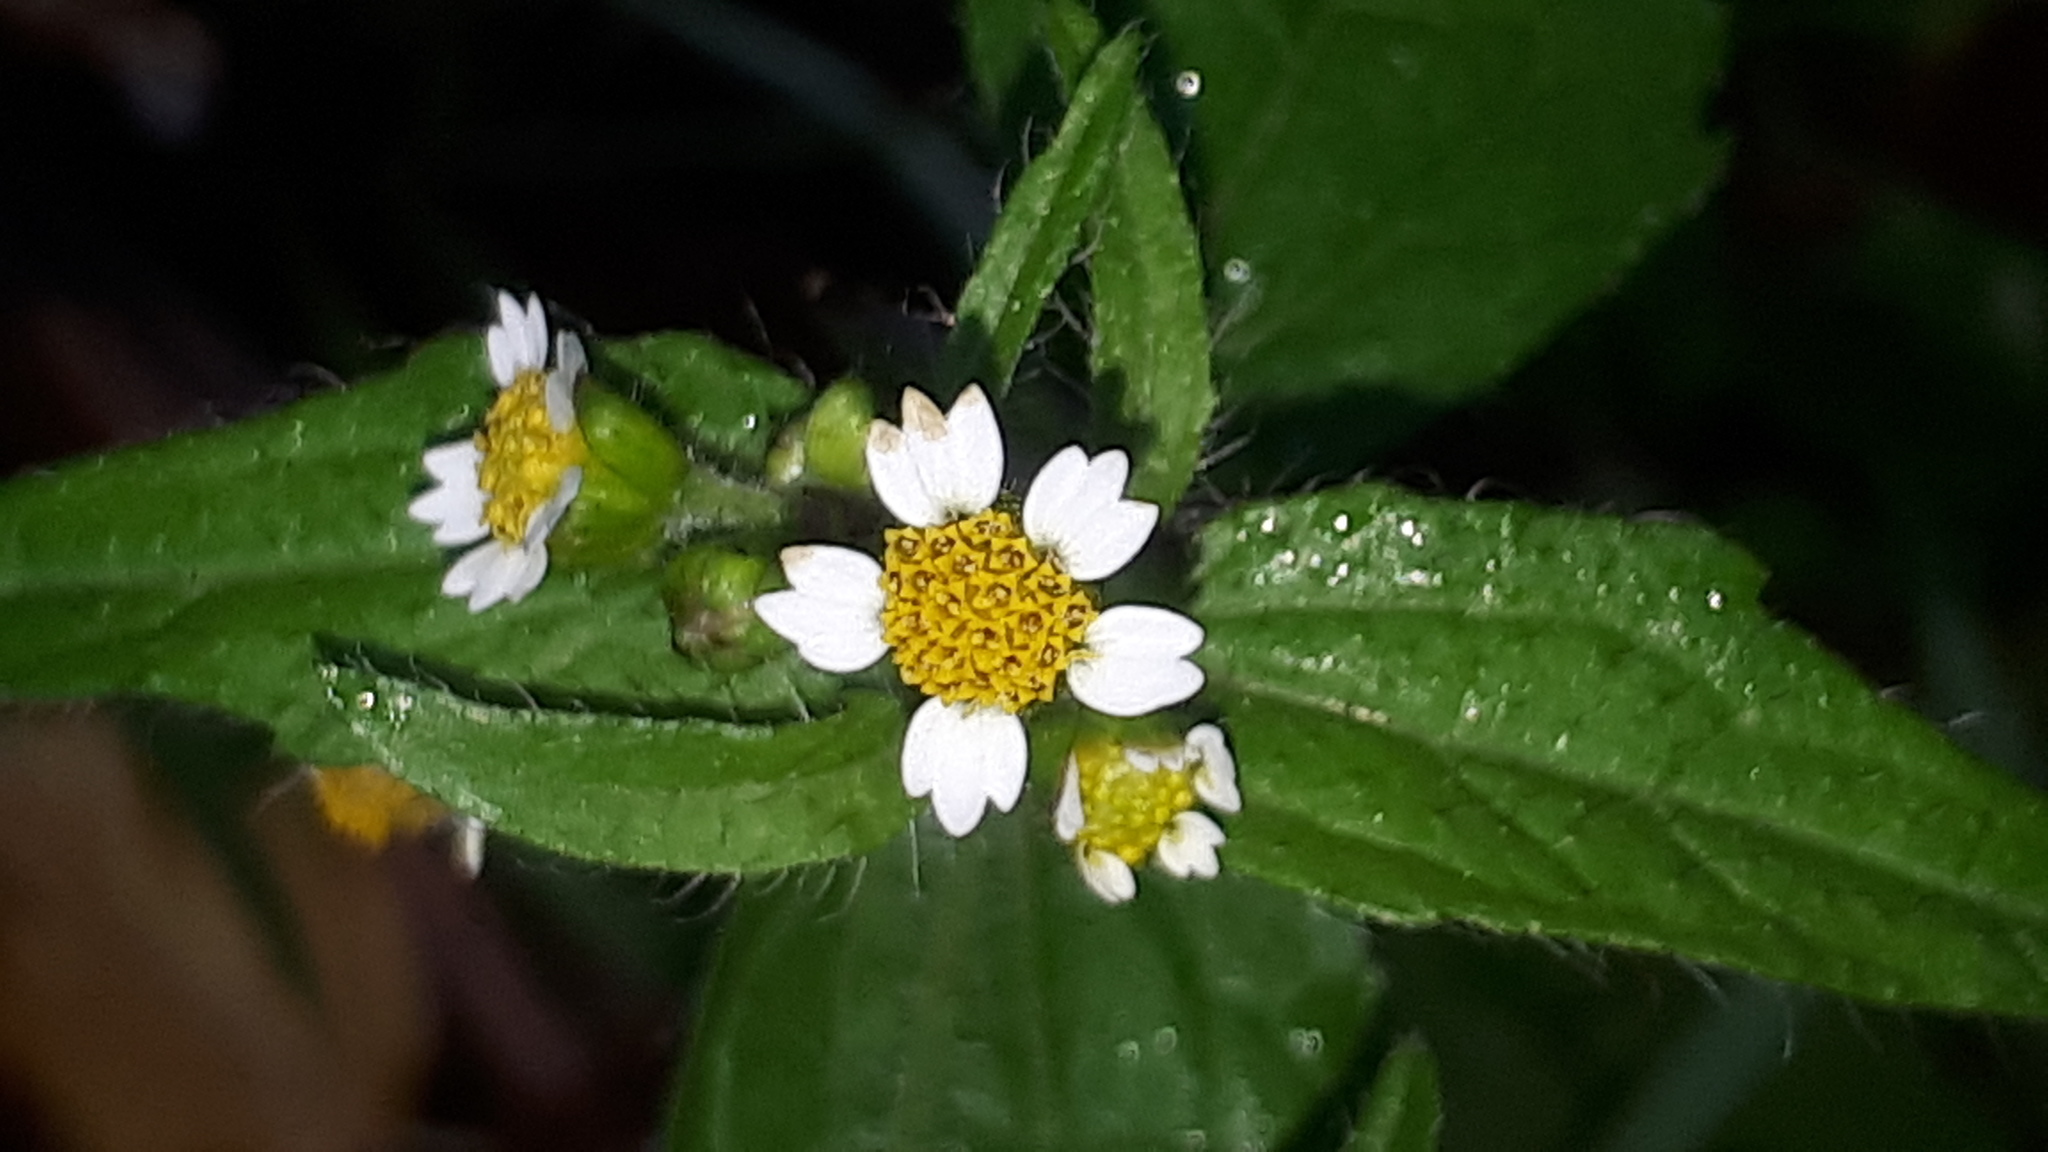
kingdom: Plantae
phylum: Tracheophyta
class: Magnoliopsida
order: Asterales
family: Asteraceae
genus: Galinsoga
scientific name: Galinsoga quadriradiata
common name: Shaggy soldier
